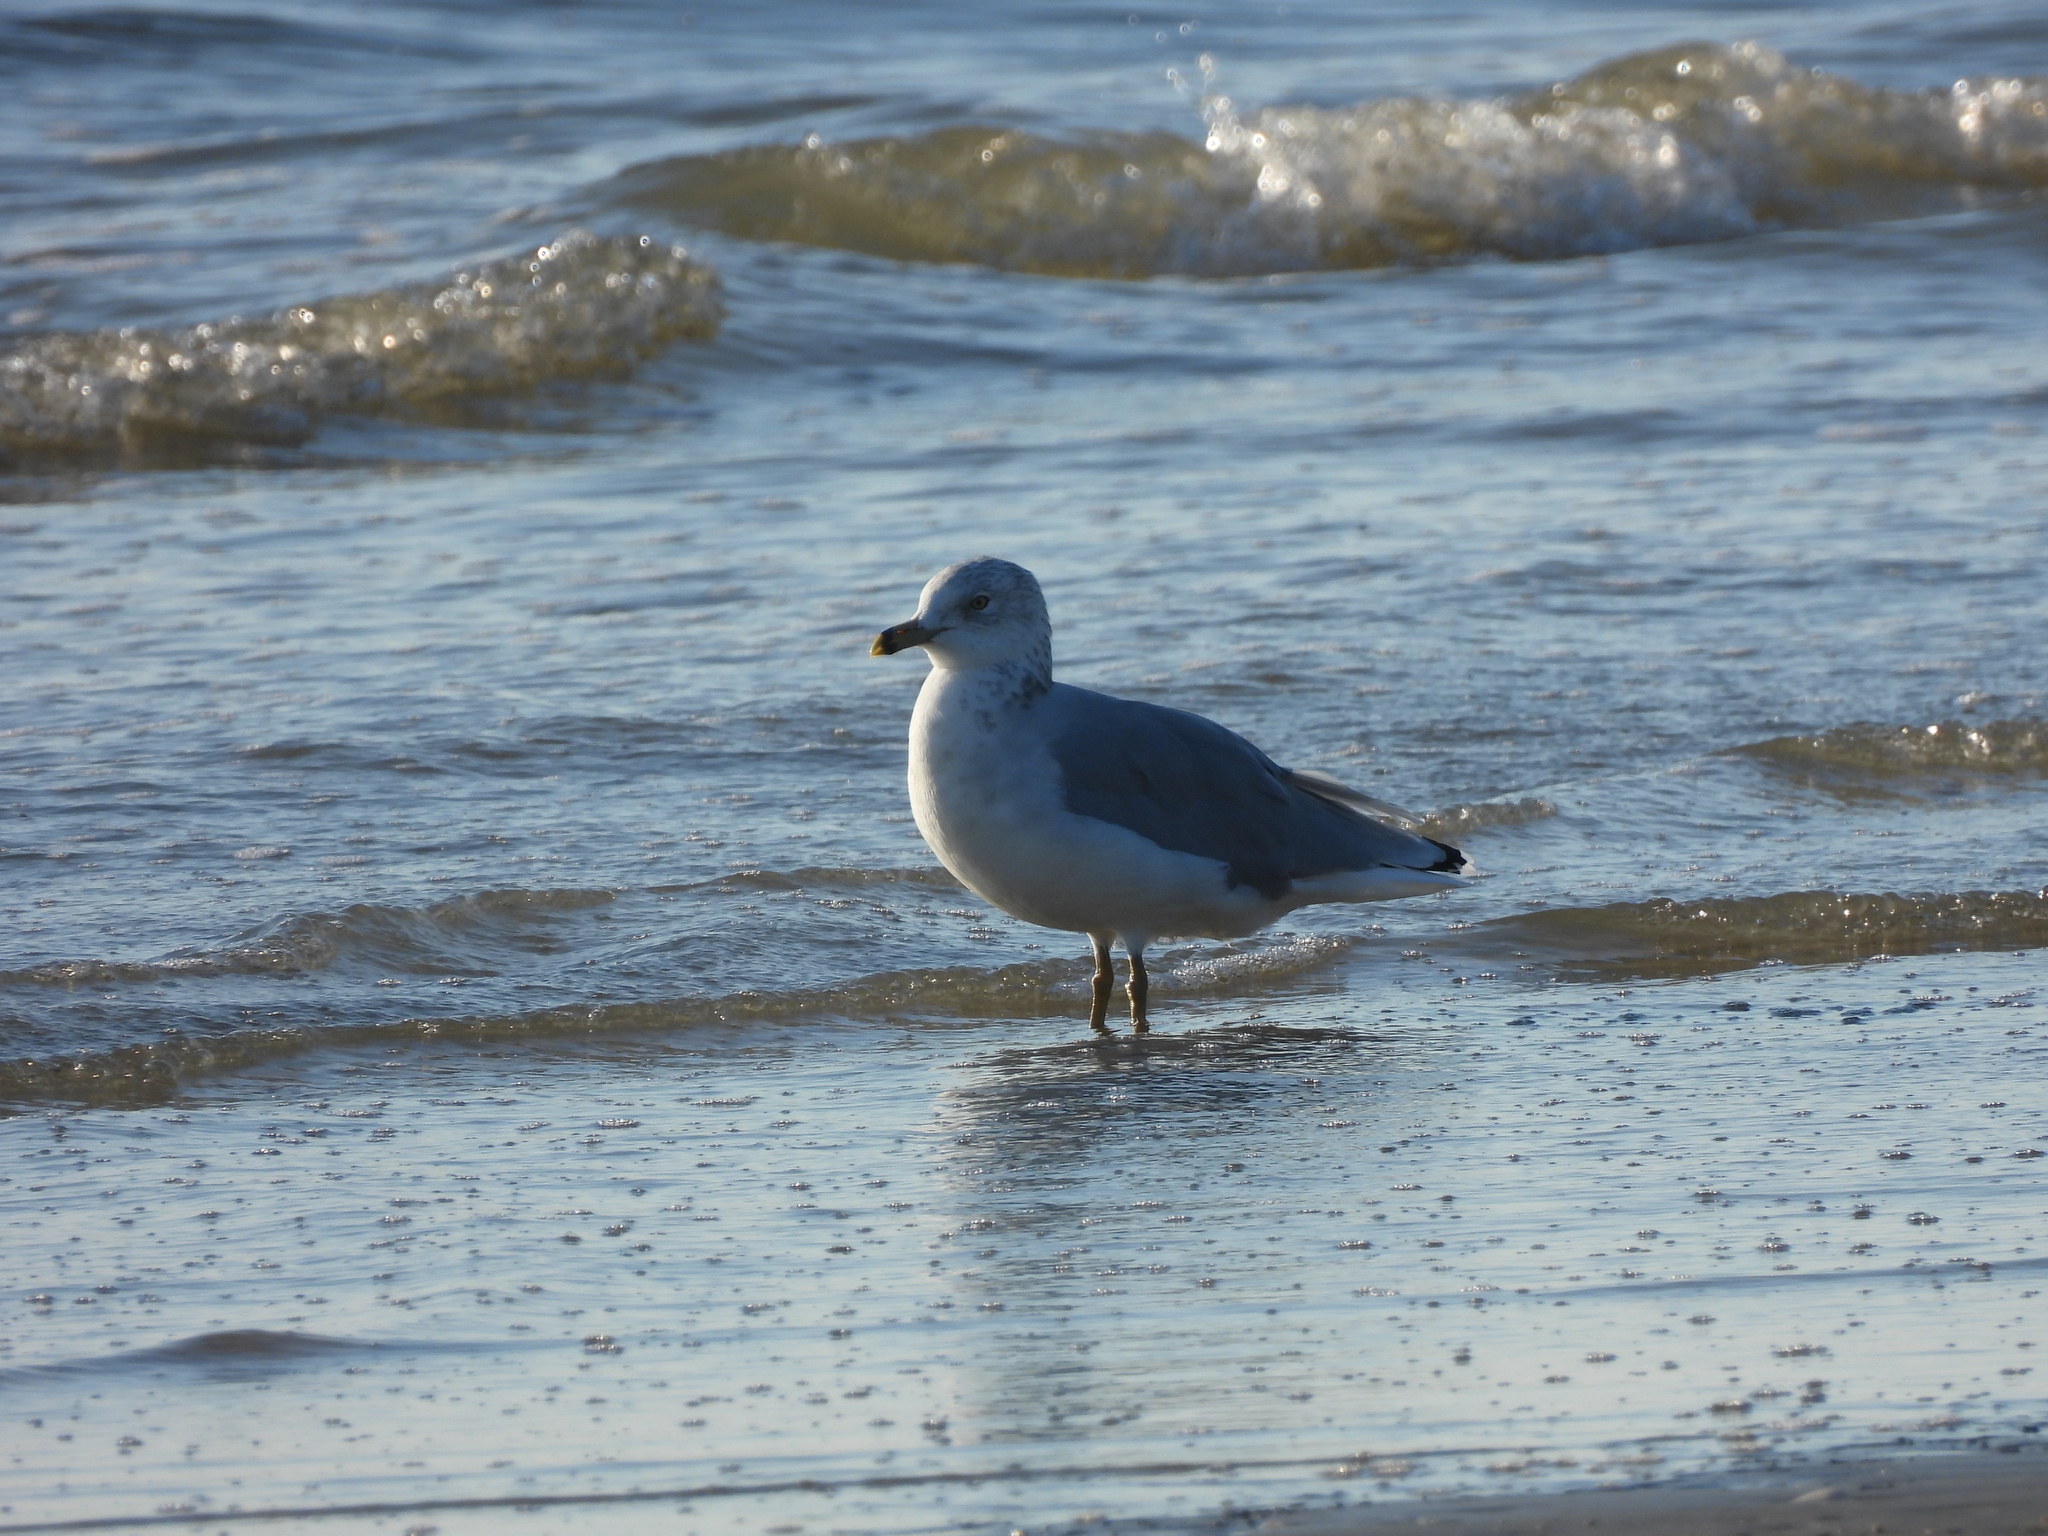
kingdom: Animalia
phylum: Chordata
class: Aves
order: Charadriiformes
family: Laridae
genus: Larus
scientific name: Larus delawarensis
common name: Ring-billed gull
